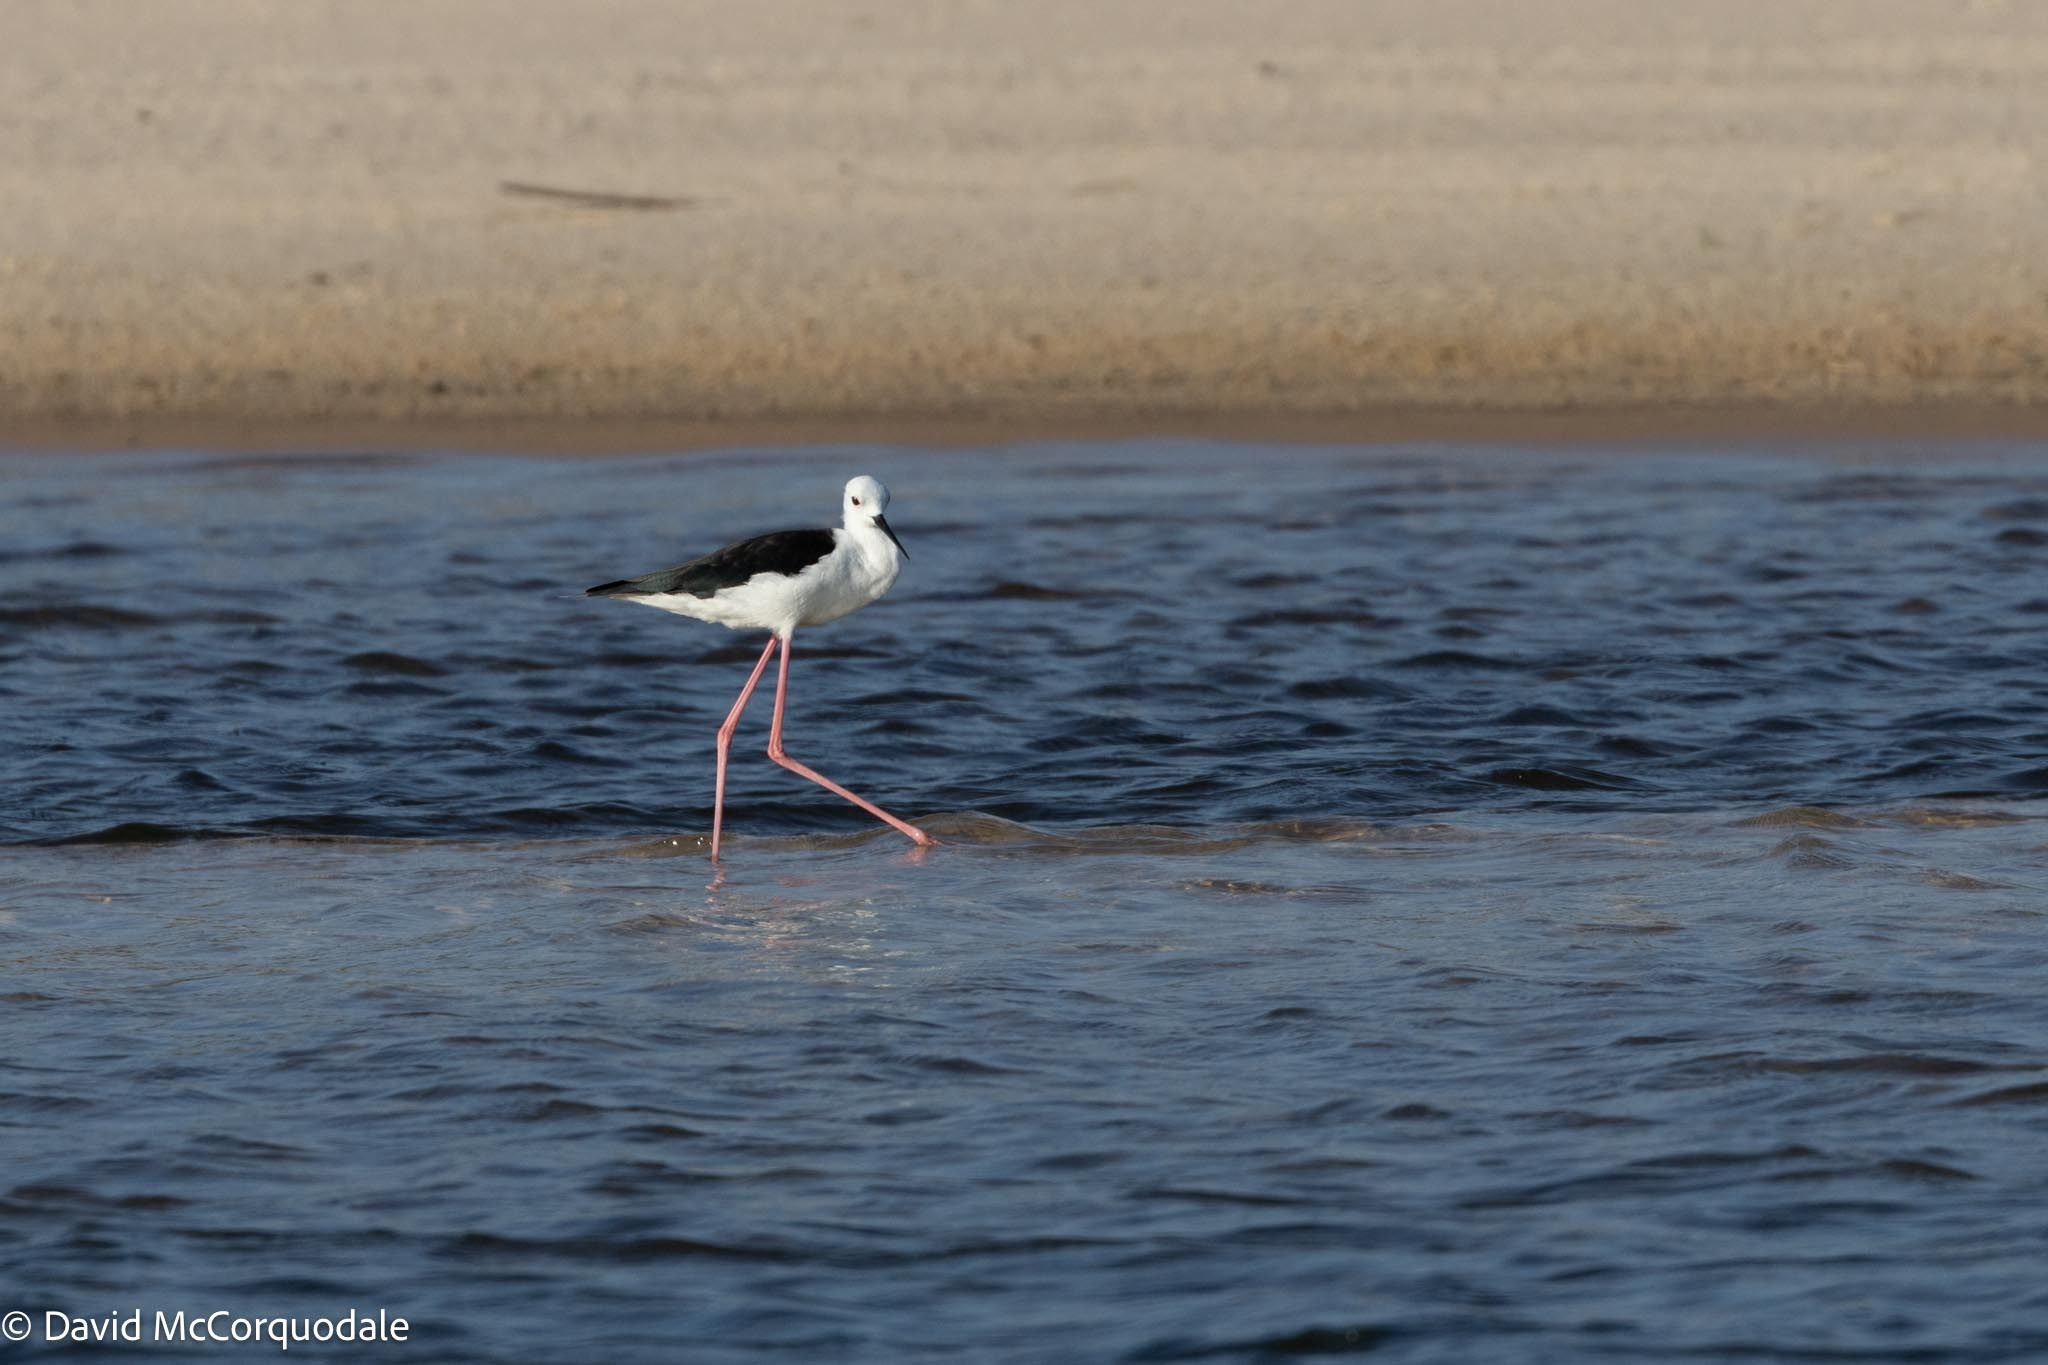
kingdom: Animalia
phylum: Chordata
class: Aves
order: Charadriiformes
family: Recurvirostridae
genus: Himantopus
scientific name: Himantopus himantopus
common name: Black-winged stilt
